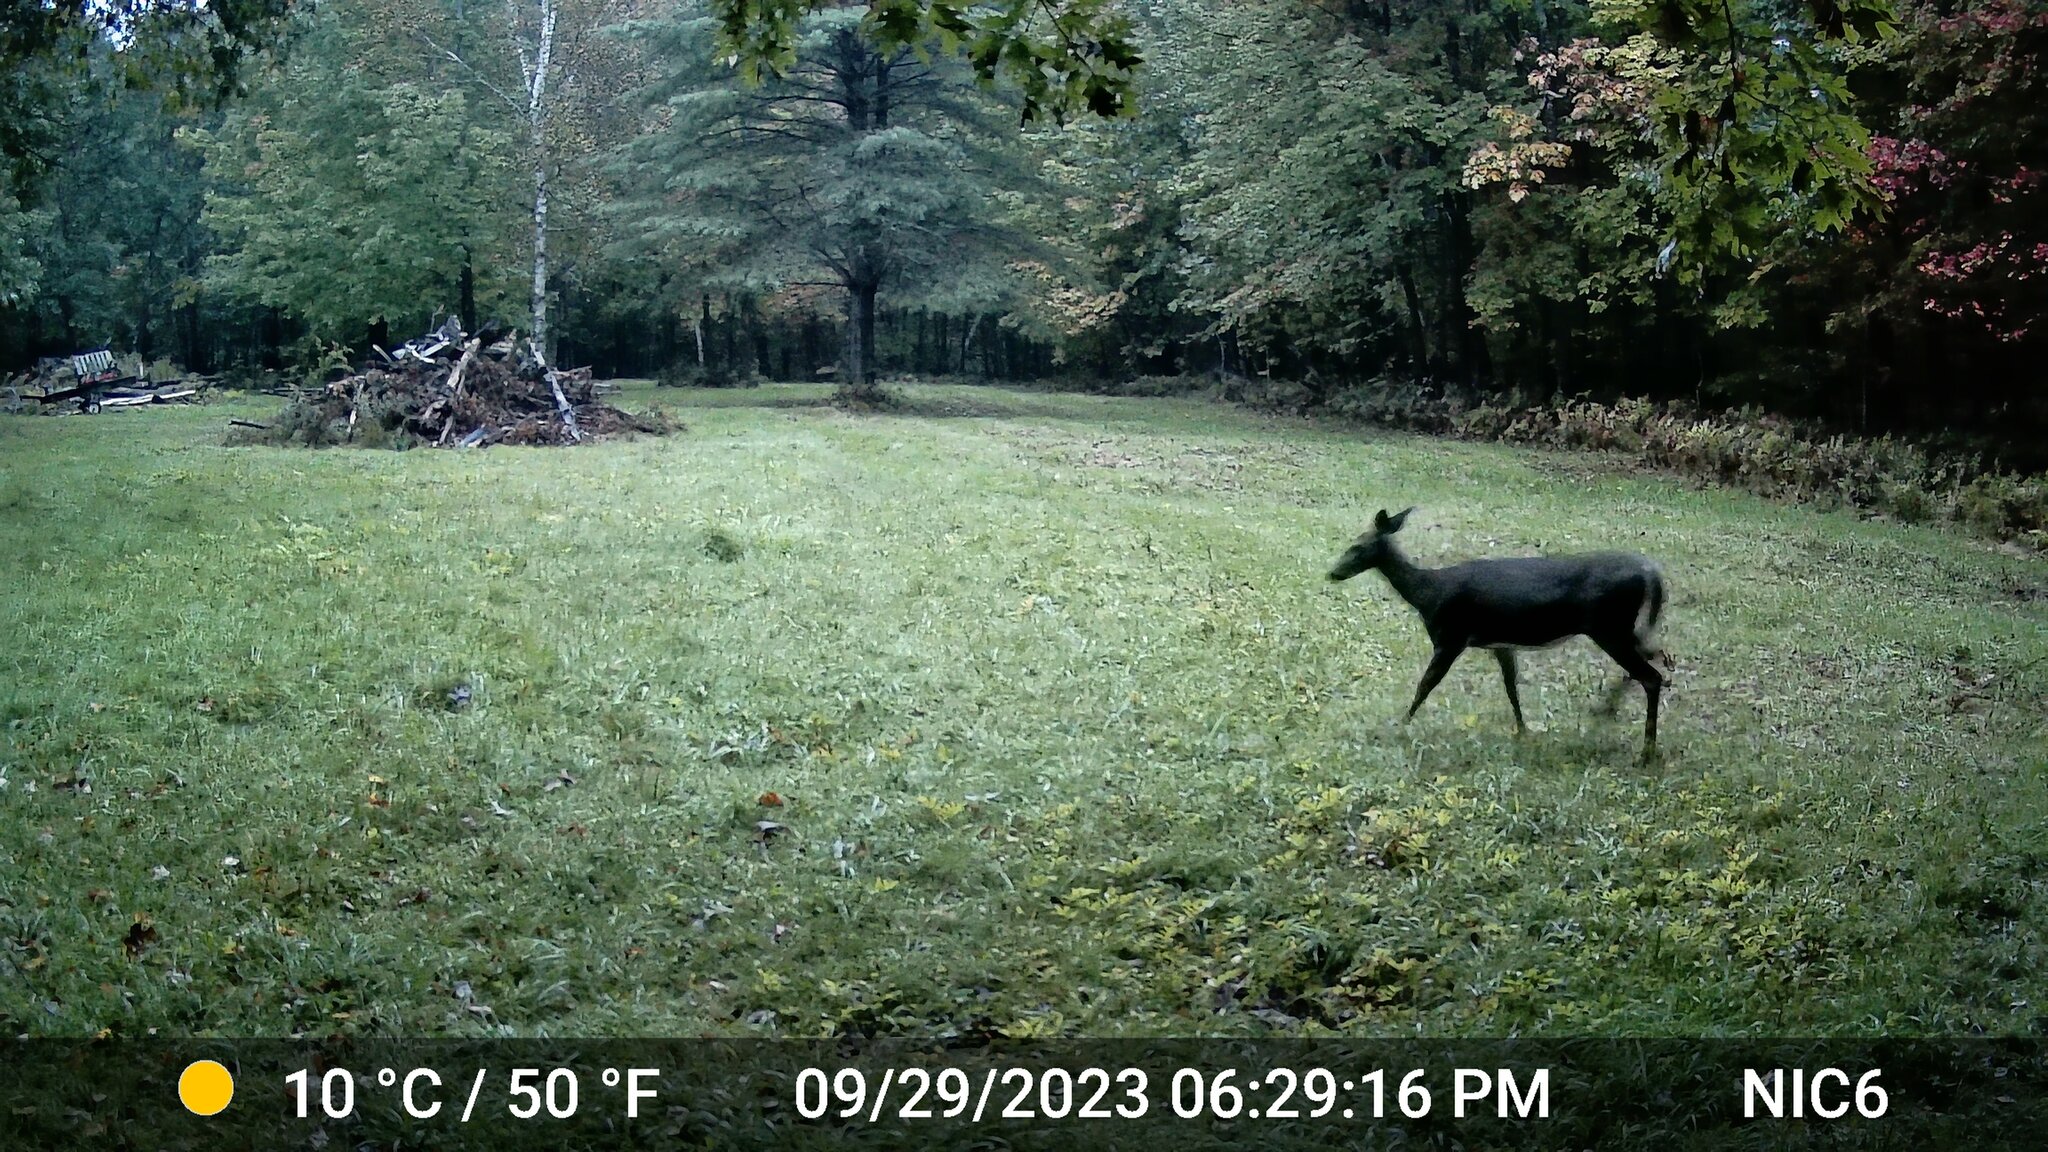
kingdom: Animalia
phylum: Chordata
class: Mammalia
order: Artiodactyla
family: Cervidae
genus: Odocoileus
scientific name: Odocoileus virginianus
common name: White-tailed deer
